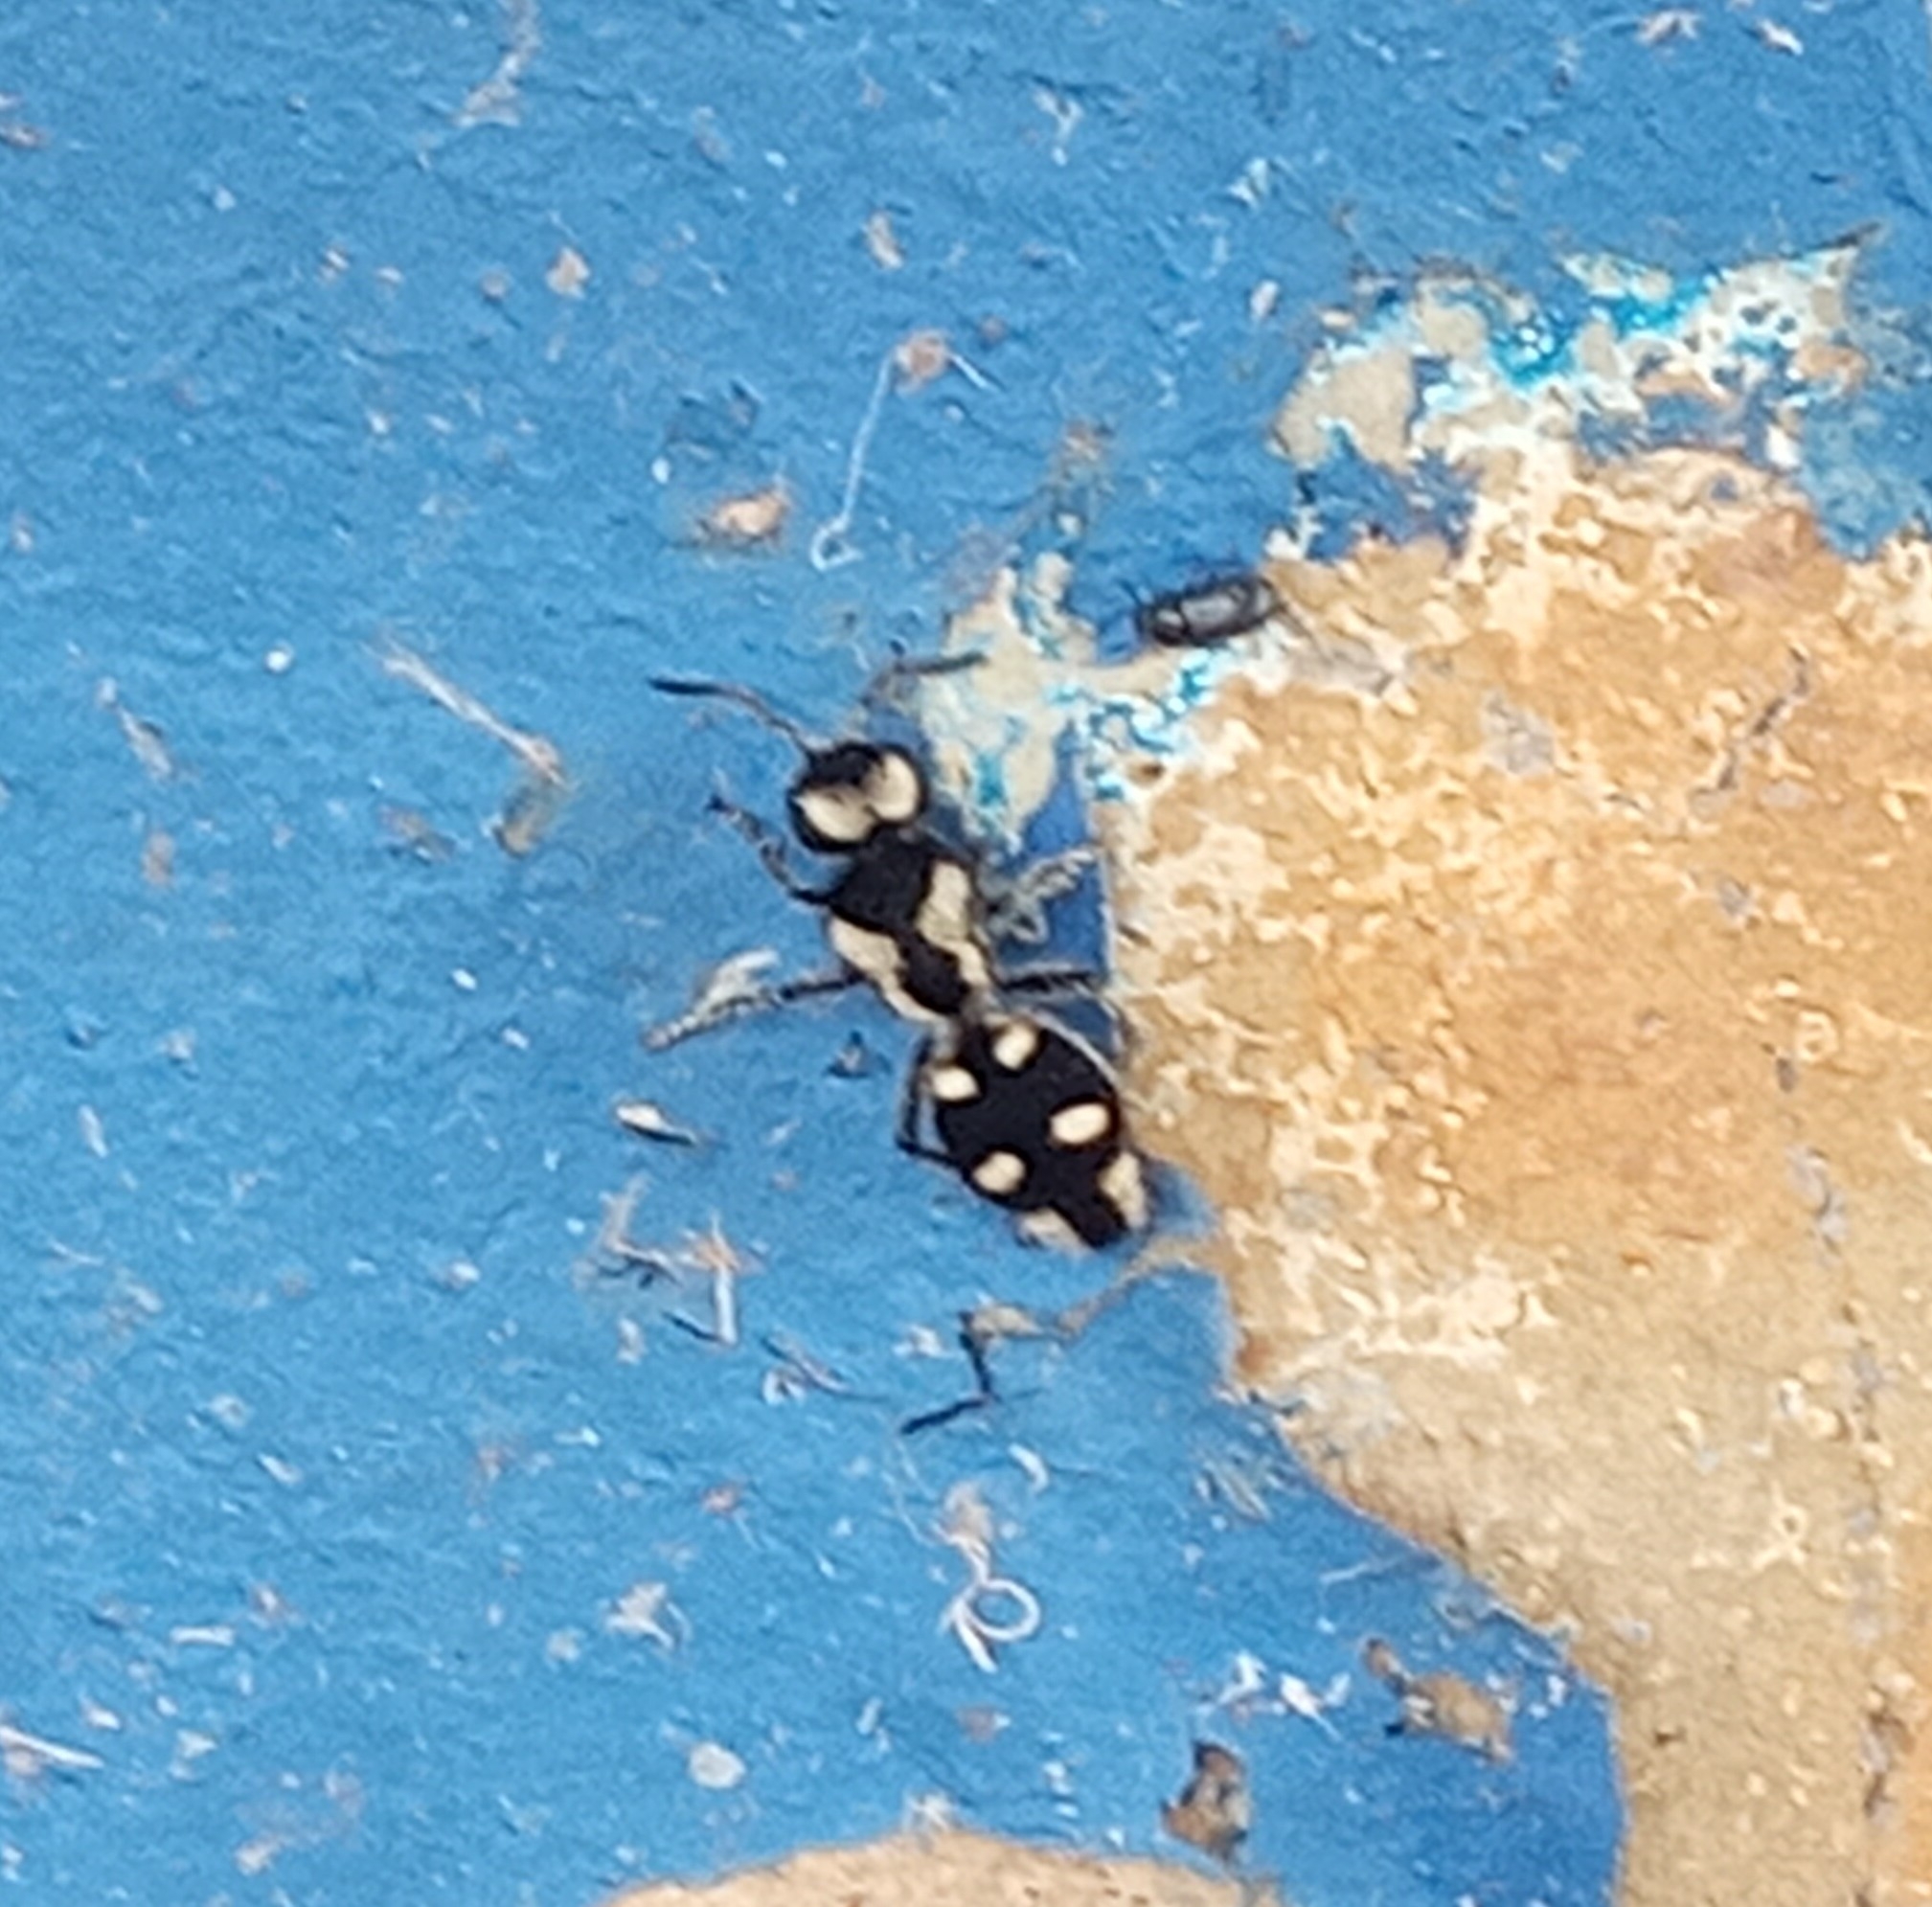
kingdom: Animalia
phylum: Arthropoda
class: Insecta
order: Hymenoptera
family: Mutillidae
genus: Hoplomutilla
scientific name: Hoplomutilla
